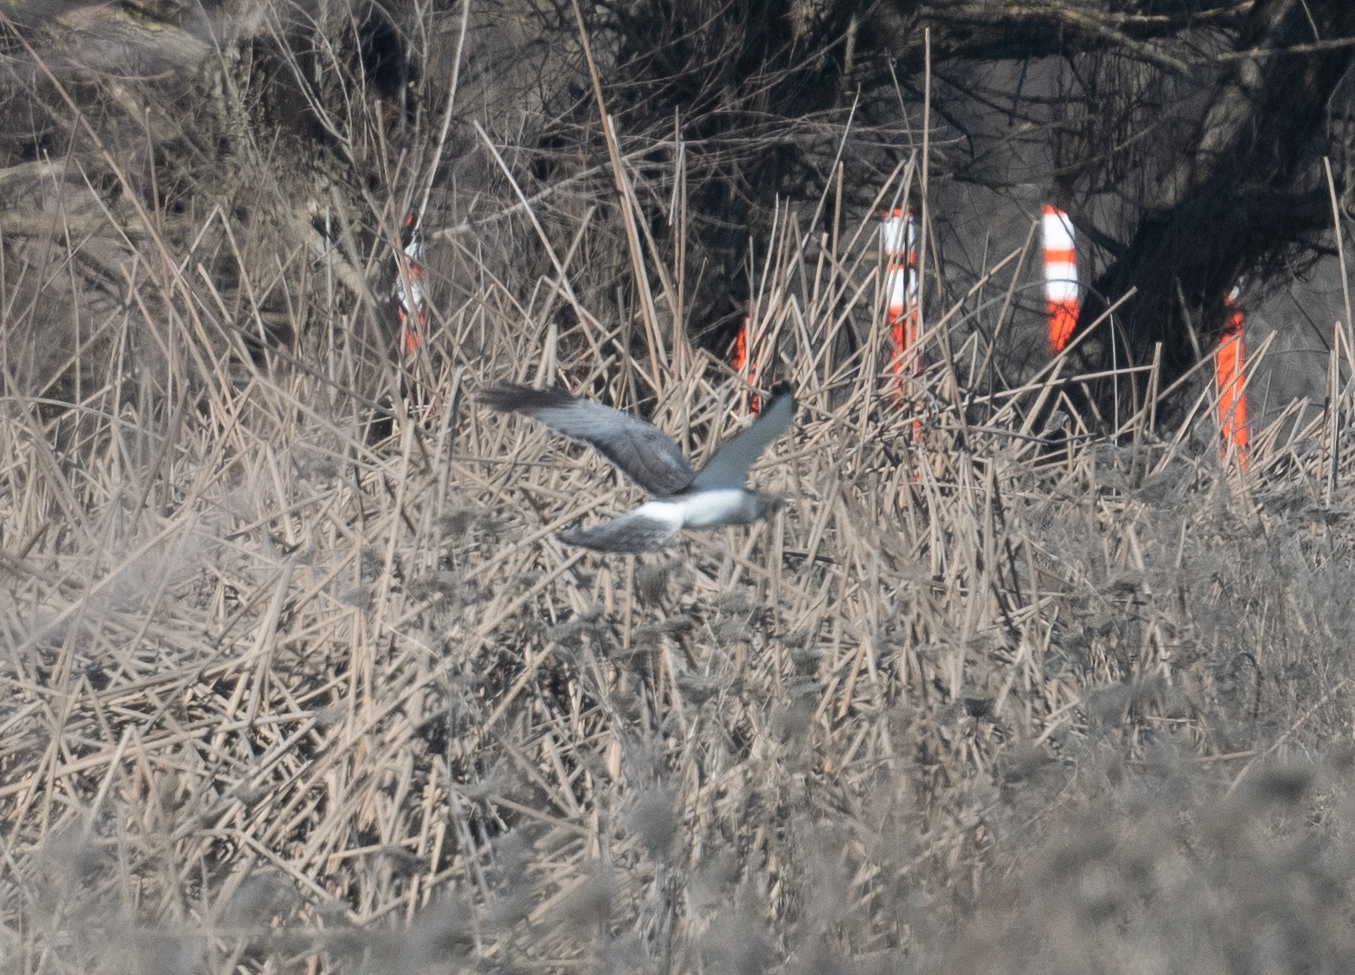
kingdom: Animalia
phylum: Chordata
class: Aves
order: Accipitriformes
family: Accipitridae
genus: Circus
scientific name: Circus cyaneus
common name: Hen harrier
